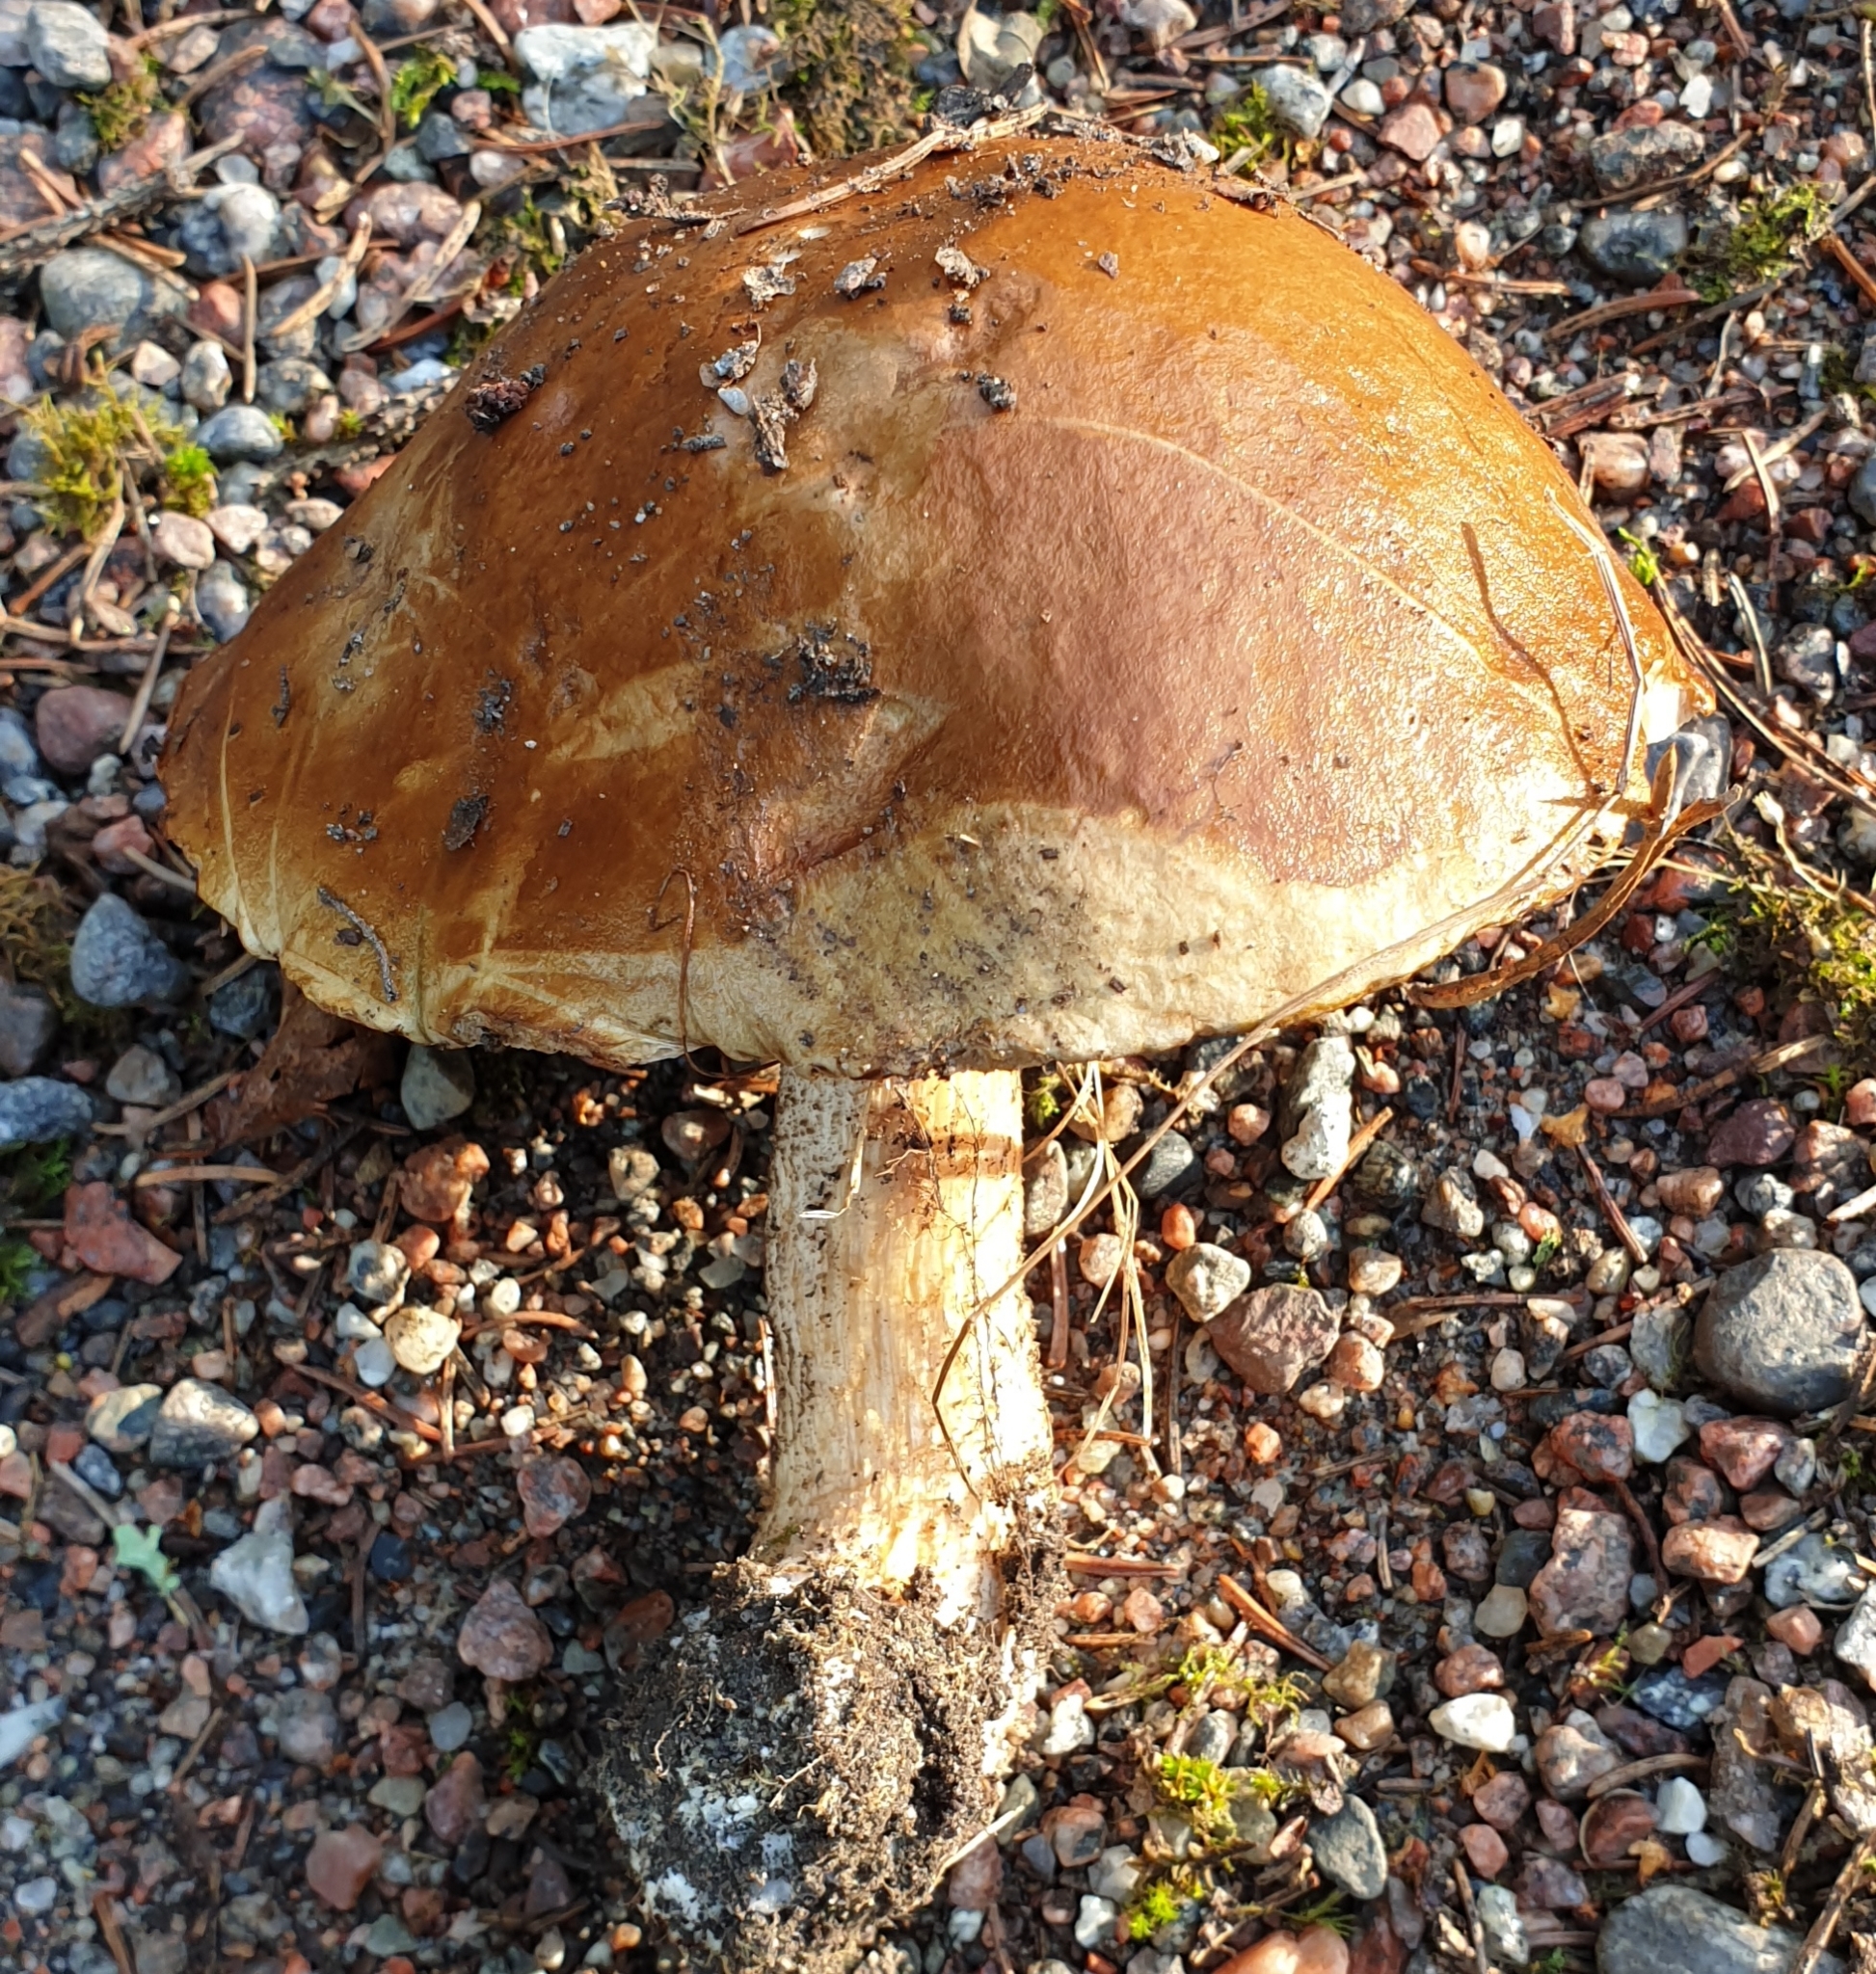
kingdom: Fungi
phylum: Basidiomycota
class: Agaricomycetes
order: Boletales
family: Boletaceae
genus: Leccinum
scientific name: Leccinum scabrum
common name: Blushing bolete
